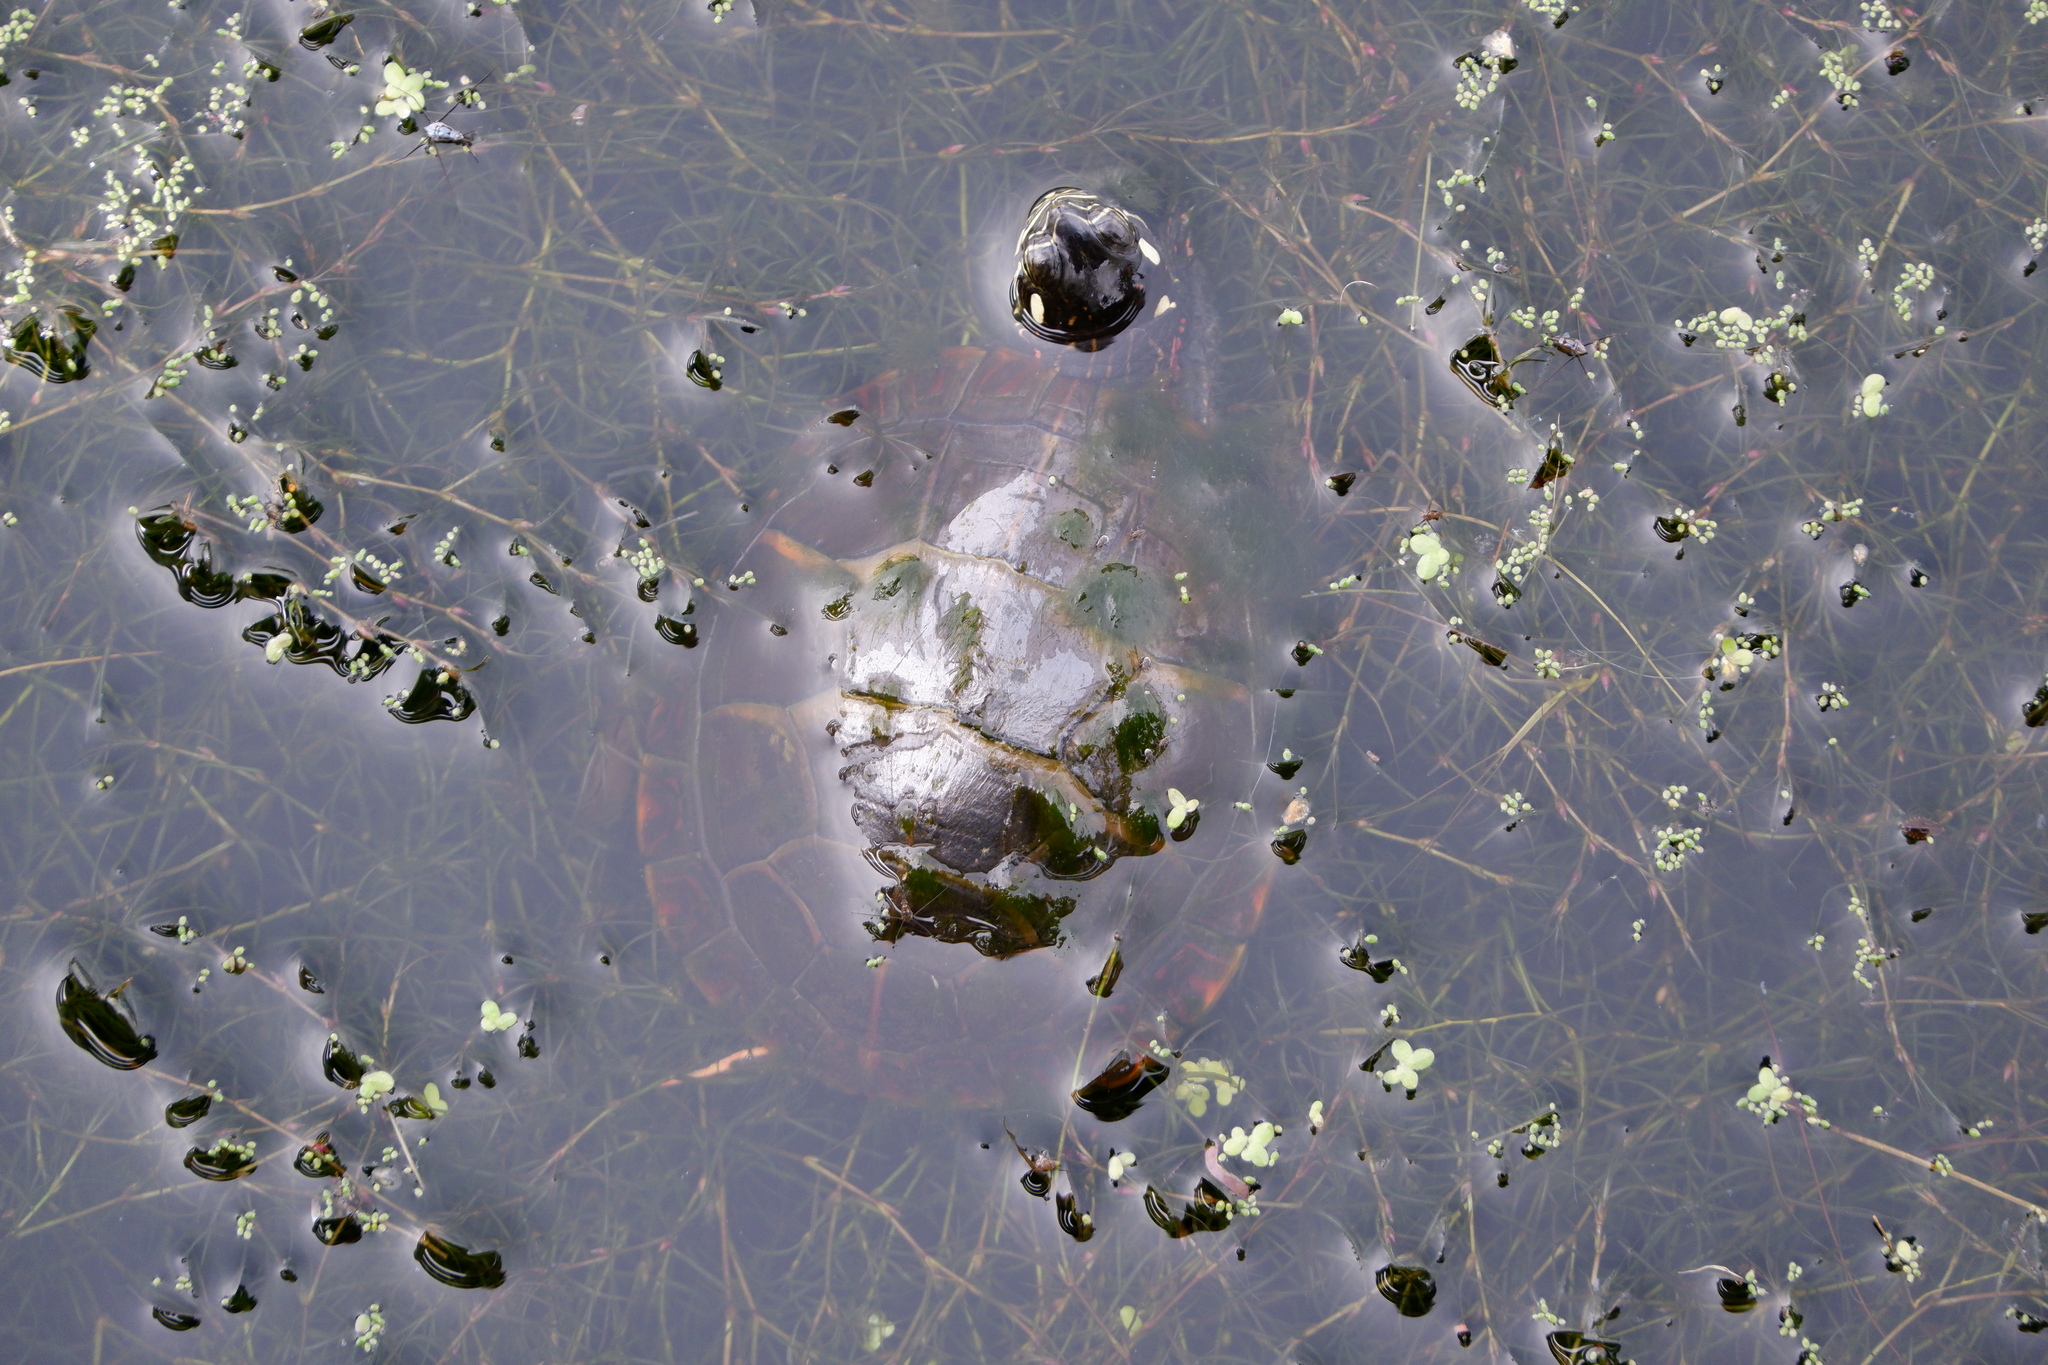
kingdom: Animalia
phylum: Chordata
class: Testudines
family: Emydidae
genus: Chrysemys
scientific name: Chrysemys picta
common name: Painted turtle
